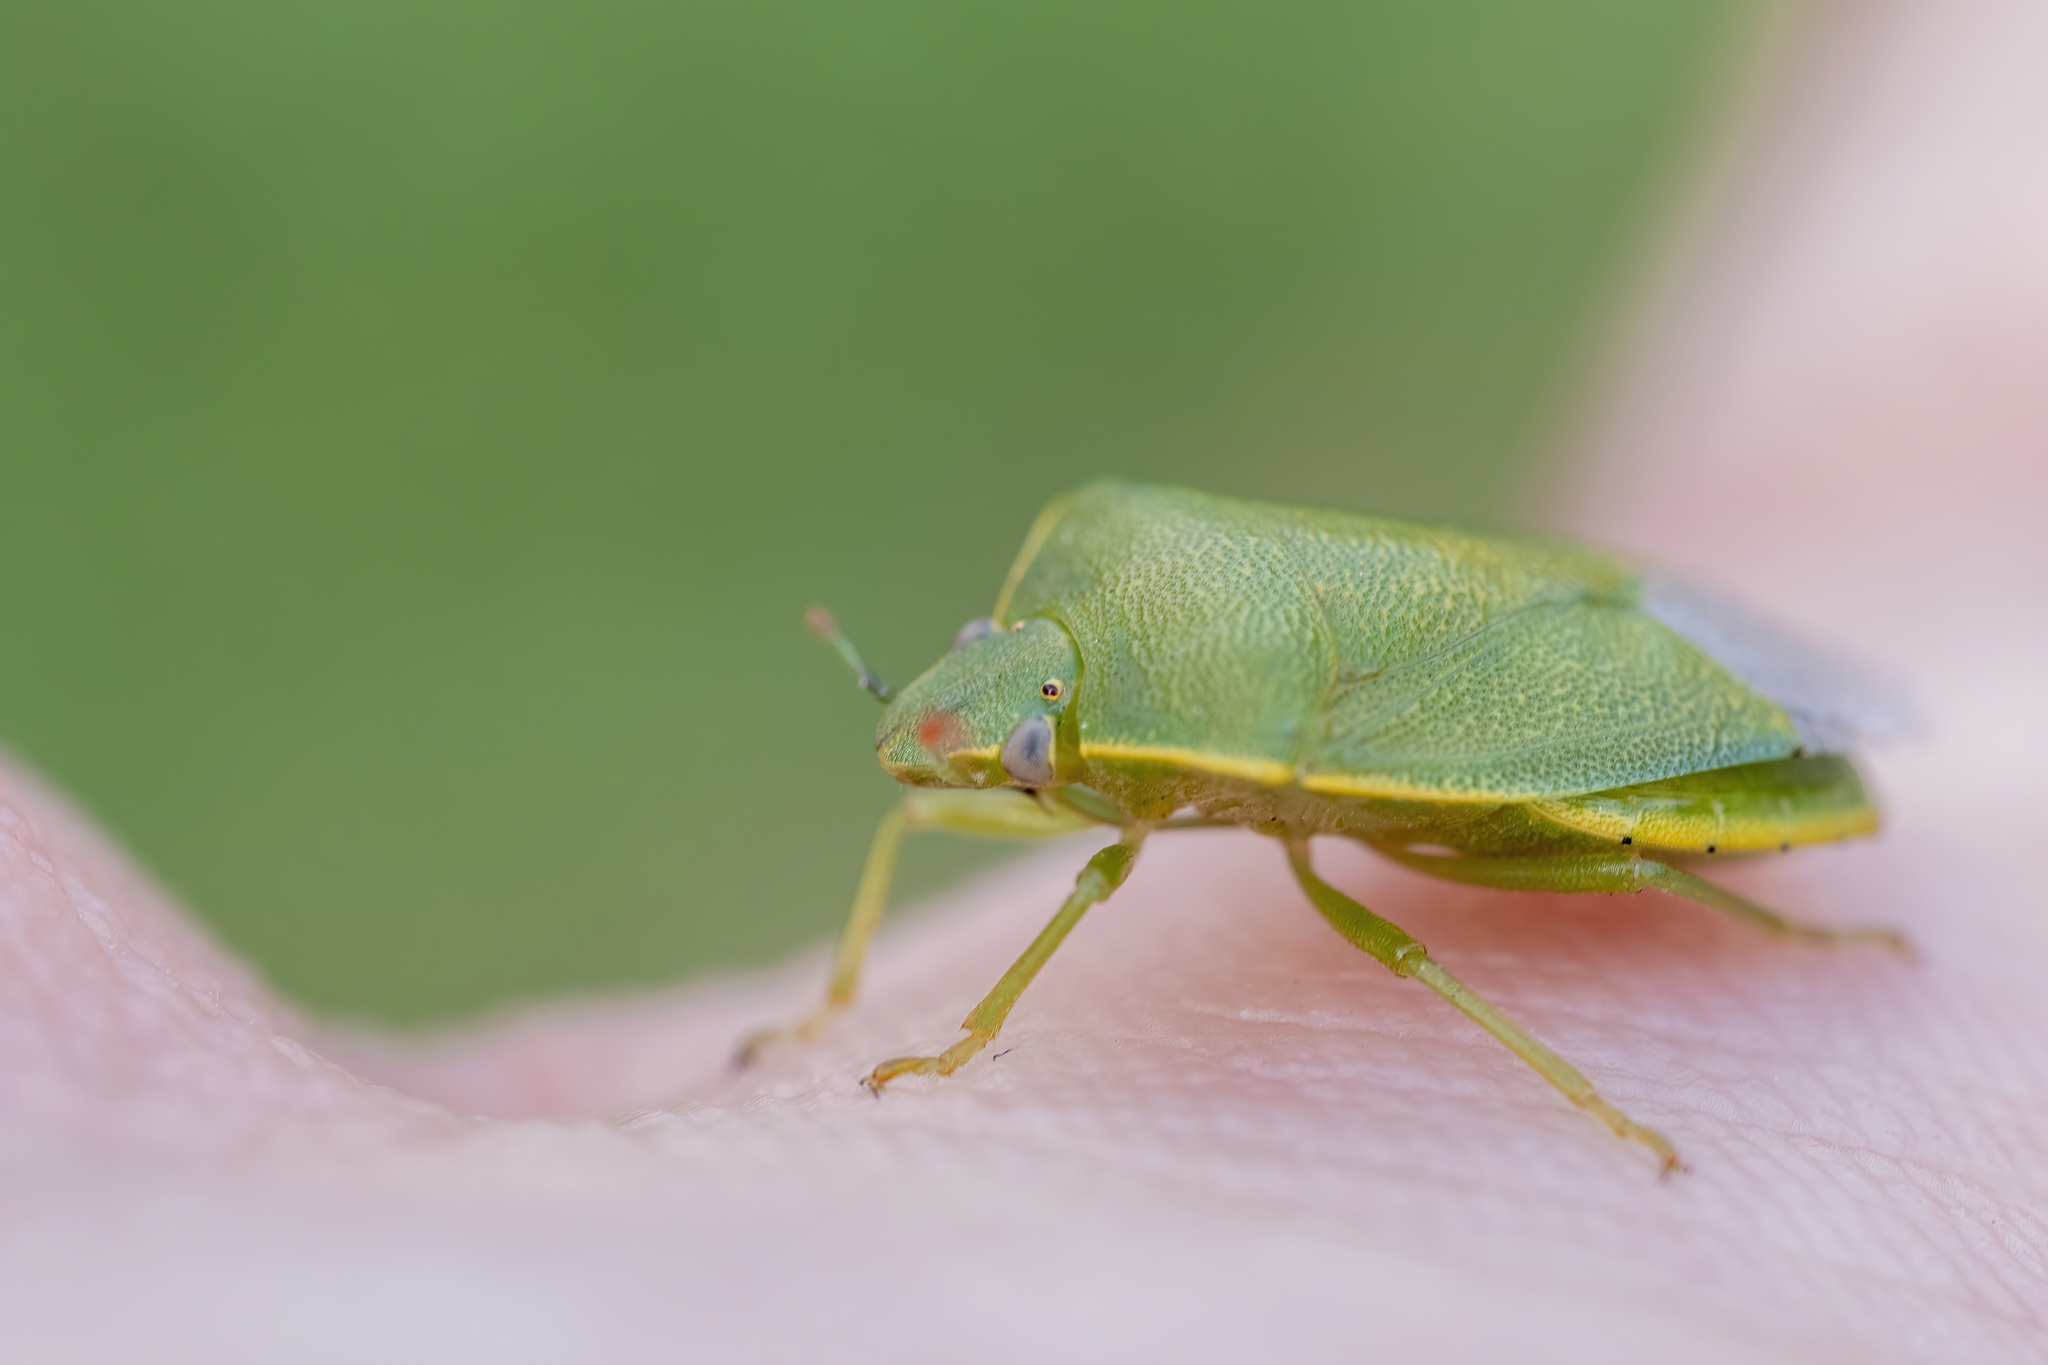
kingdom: Animalia
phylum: Arthropoda
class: Insecta
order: Hemiptera
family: Pentatomidae
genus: Acrosternum
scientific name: Acrosternum heegeri
